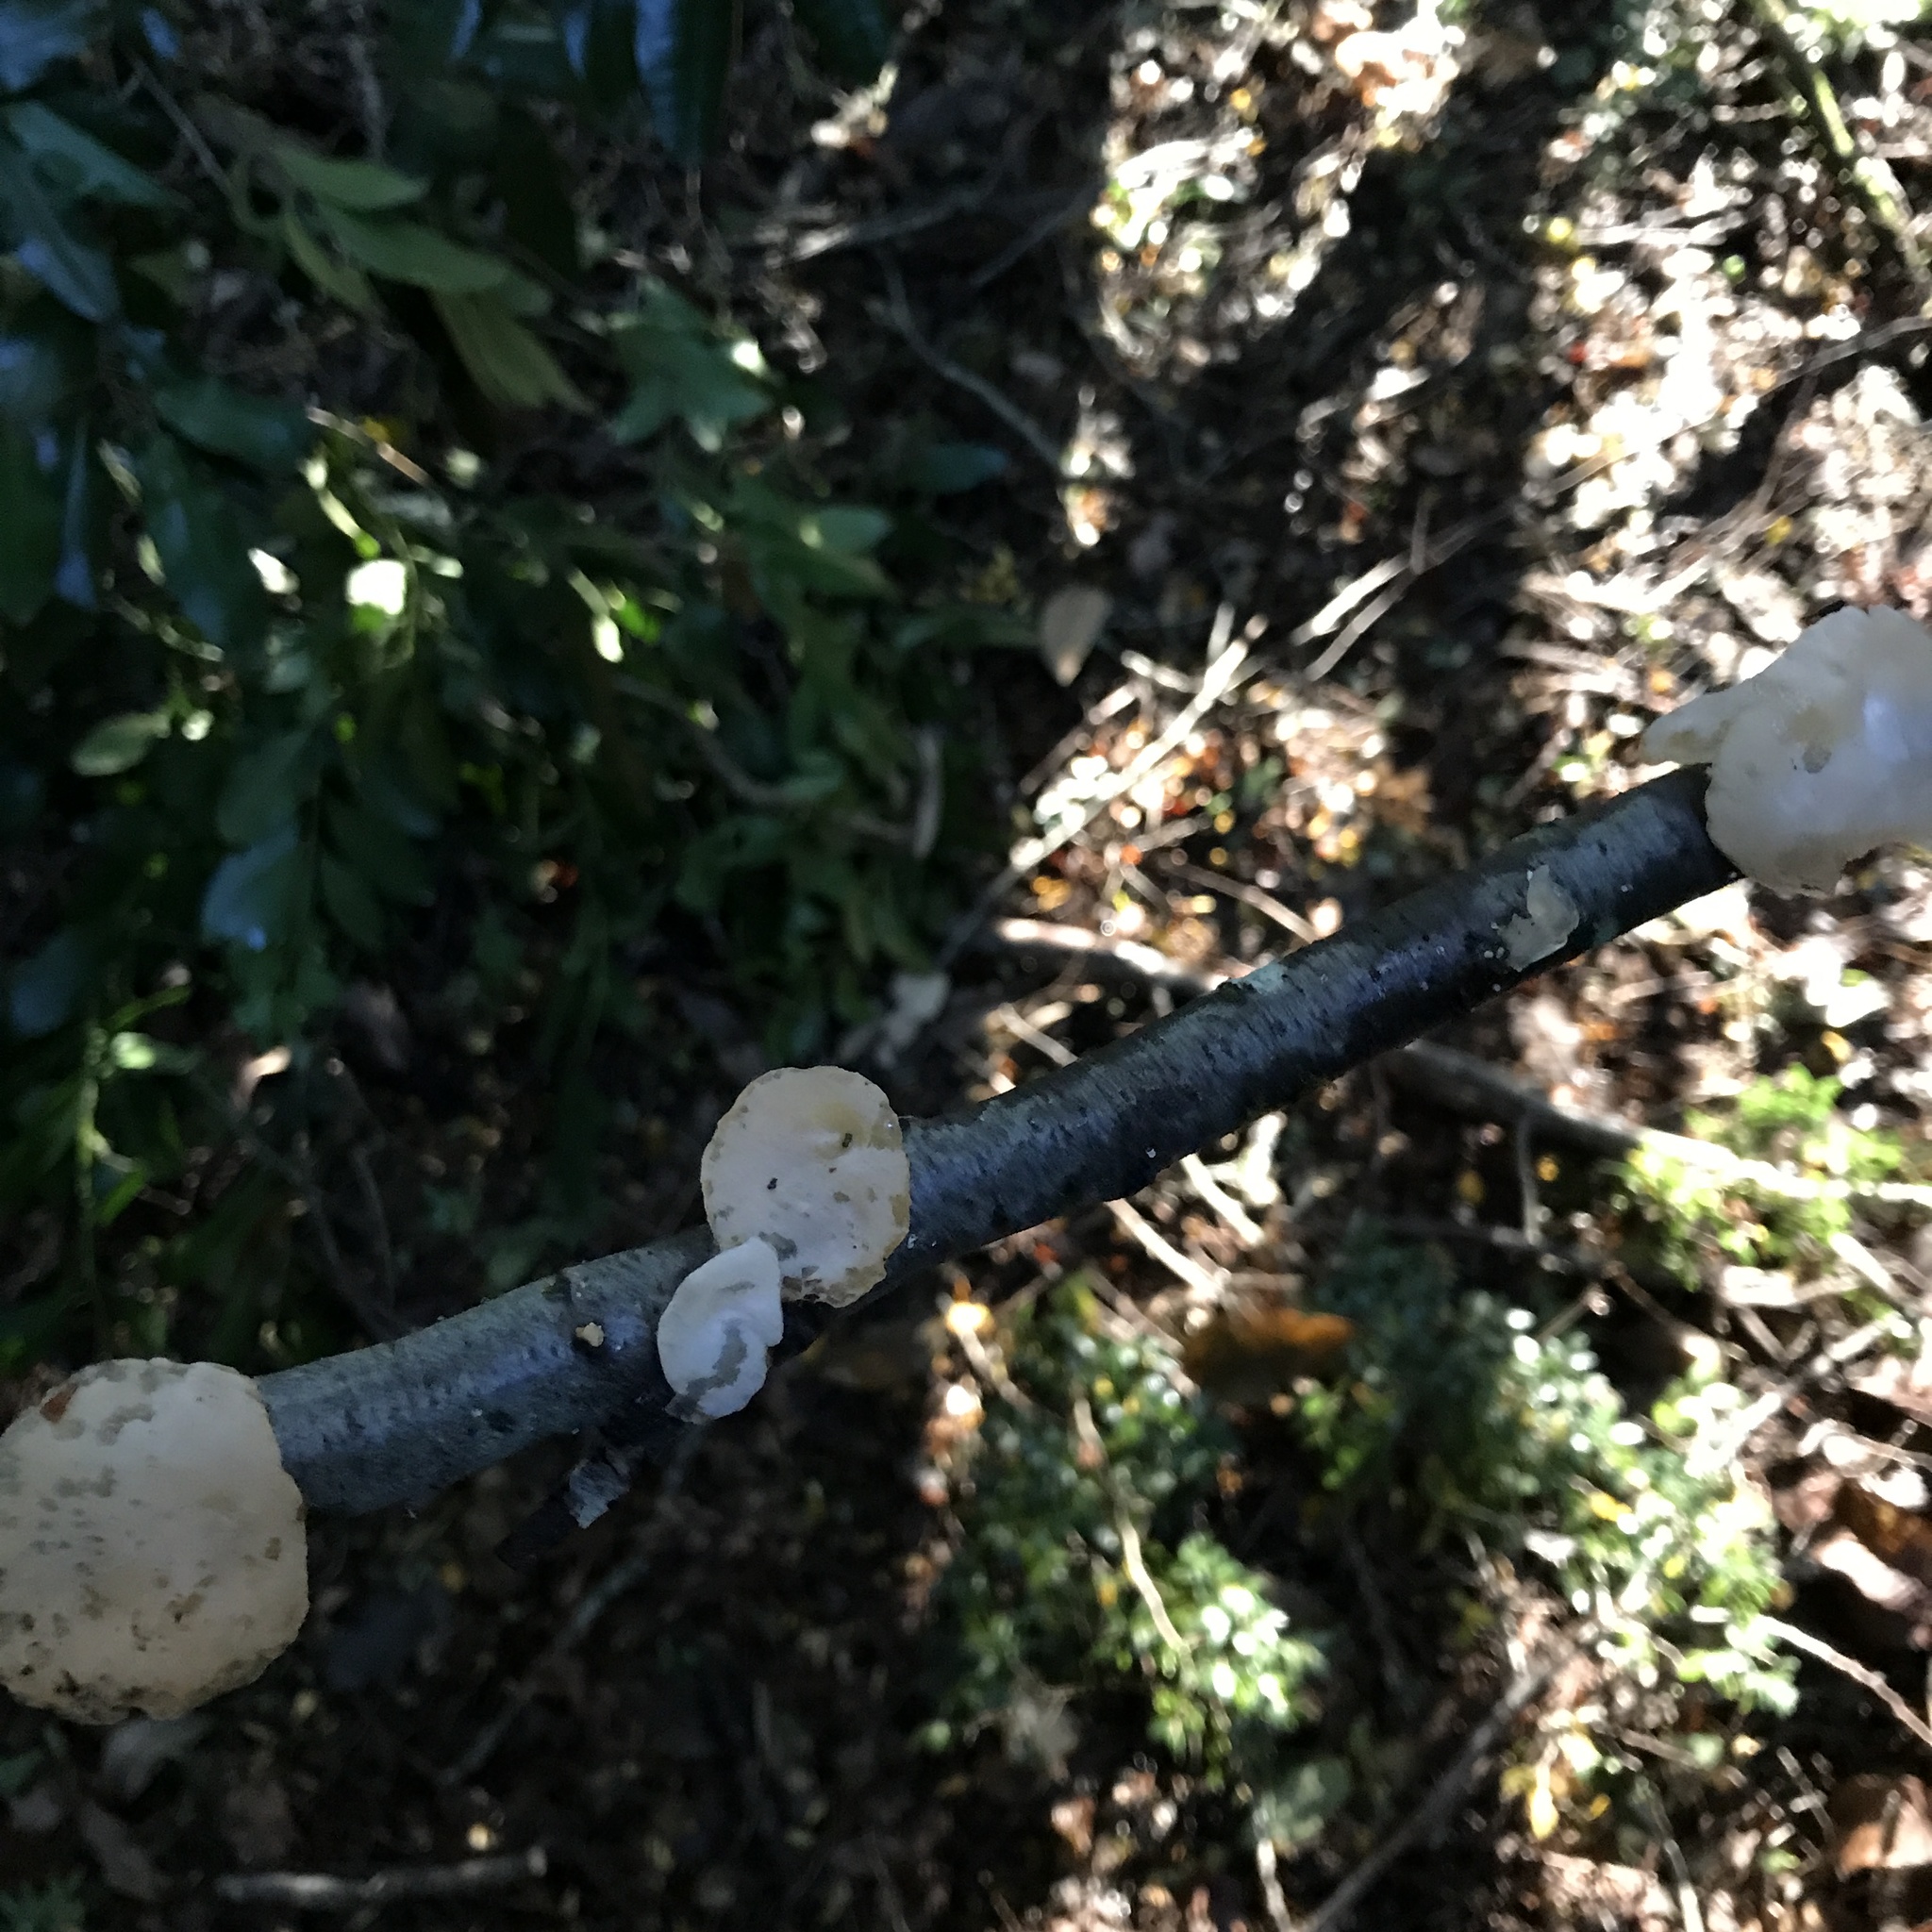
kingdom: Fungi
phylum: Basidiomycota
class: Agaricomycetes
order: Russulales
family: Stereaceae
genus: Aleurodiscus
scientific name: Aleurodiscus vitellinus
